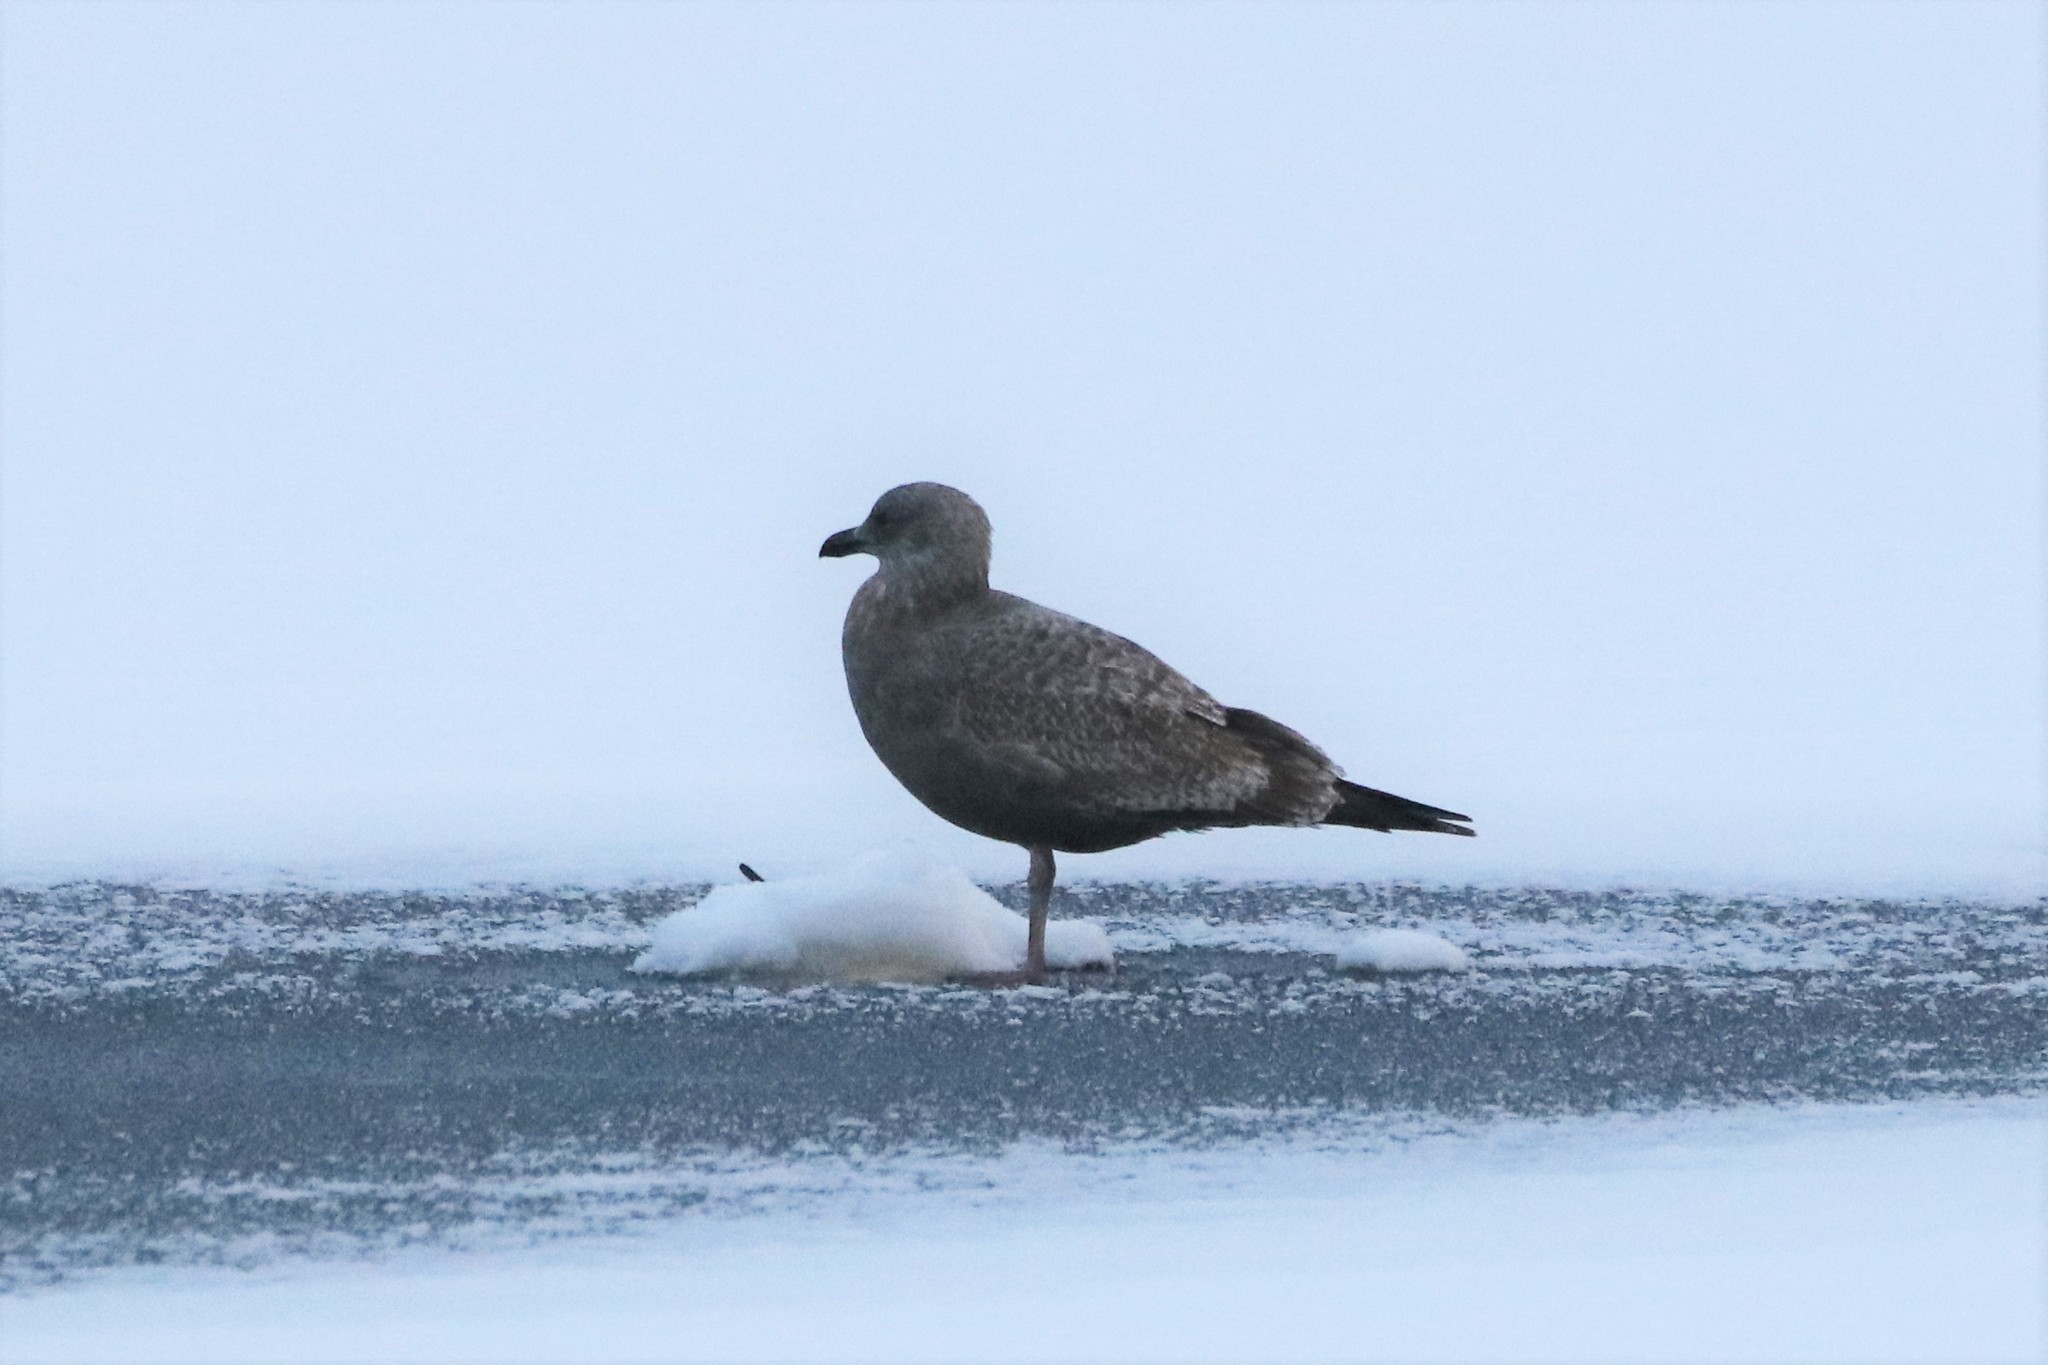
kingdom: Animalia
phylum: Chordata
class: Aves
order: Charadriiformes
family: Laridae
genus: Larus
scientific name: Larus argentatus
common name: Herring gull
